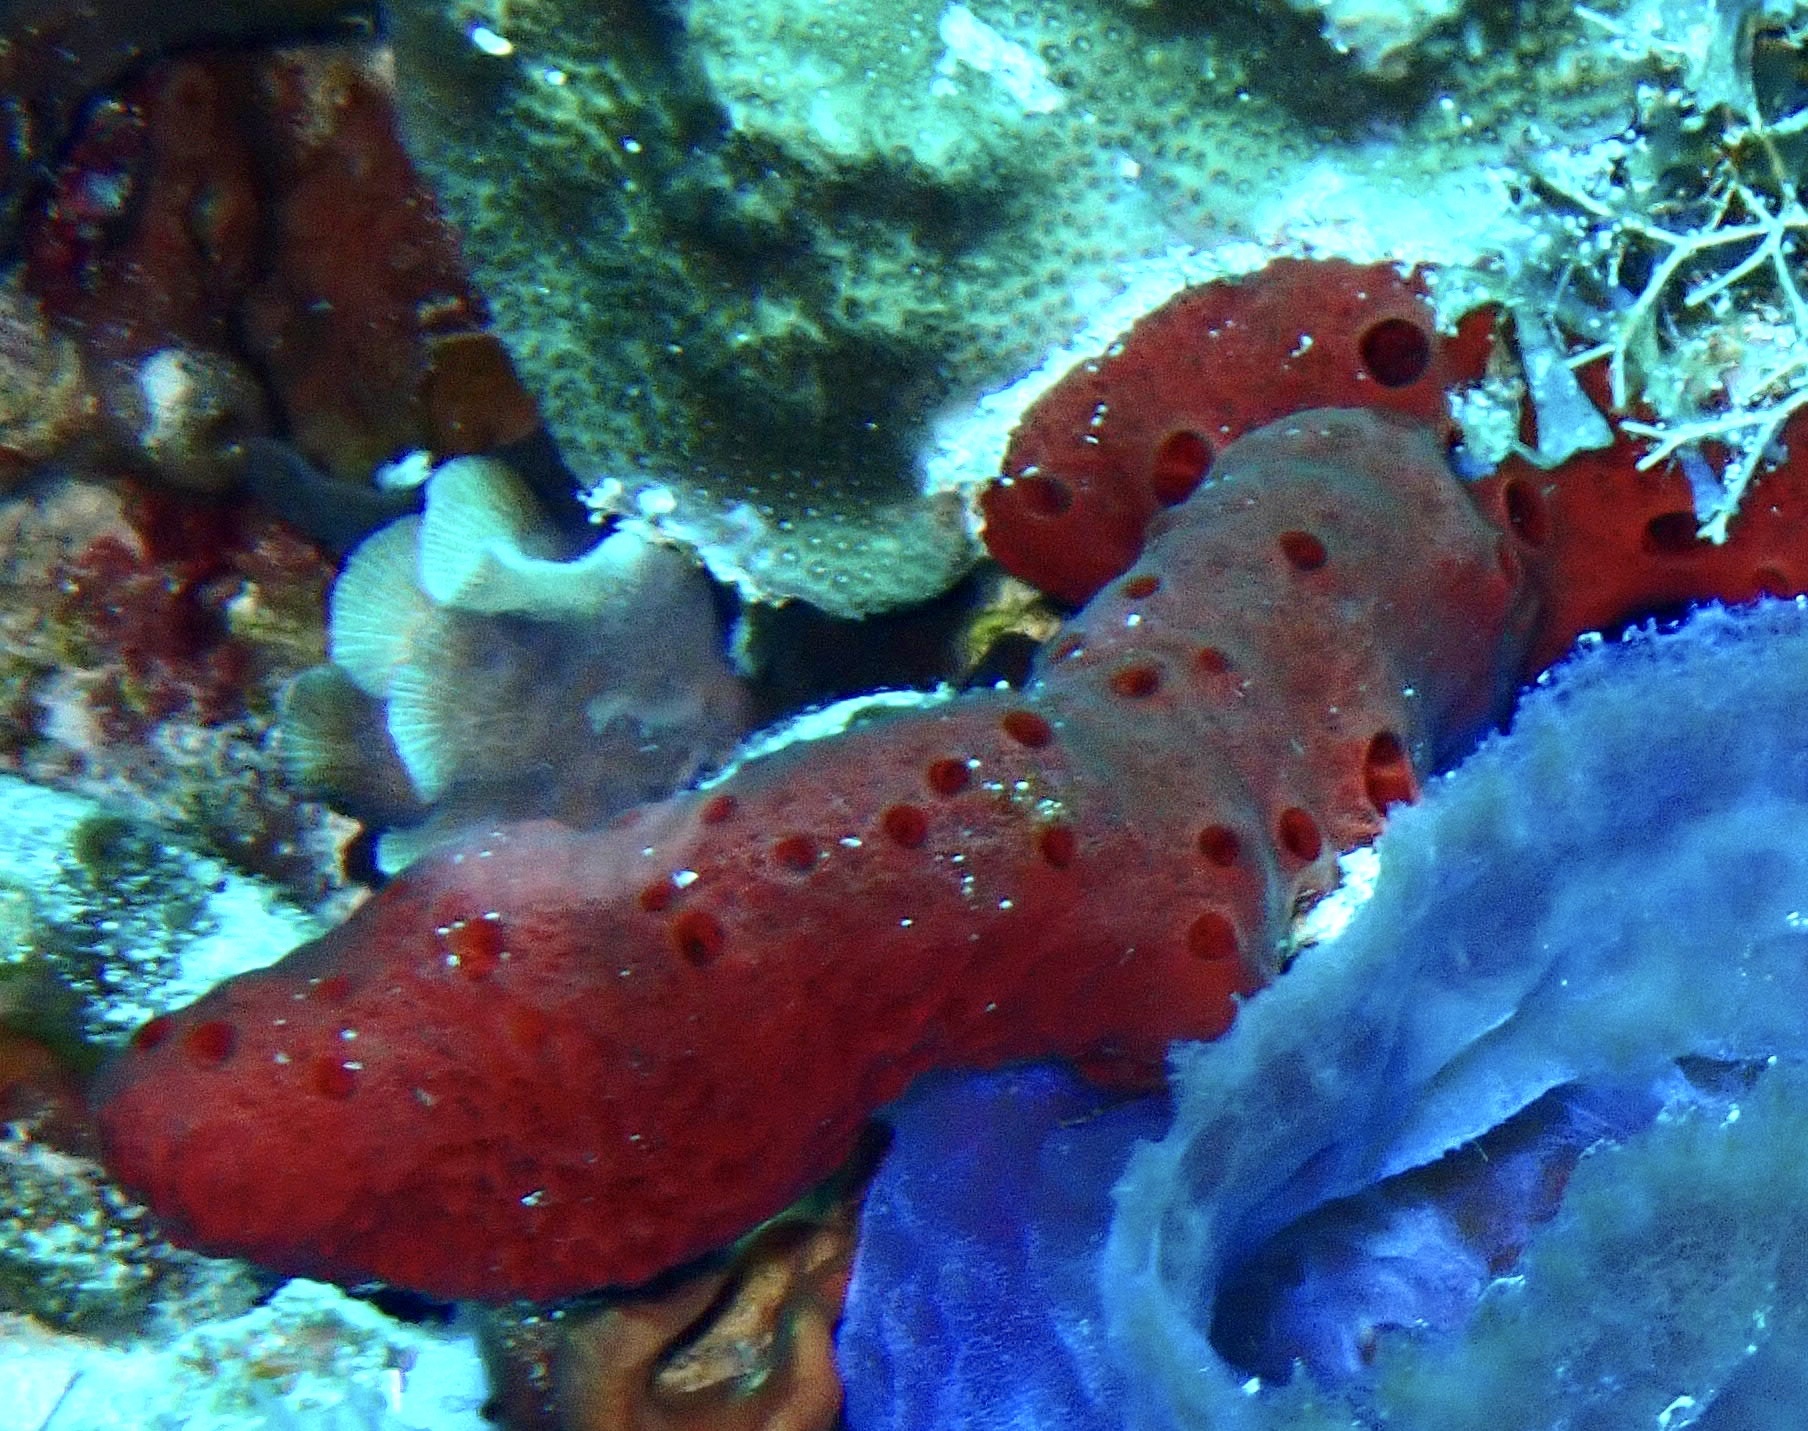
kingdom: Animalia
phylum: Porifera
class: Demospongiae
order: Haplosclerida
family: Niphatidae
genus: Amphimedon
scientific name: Amphimedon compressa
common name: Red sponge
